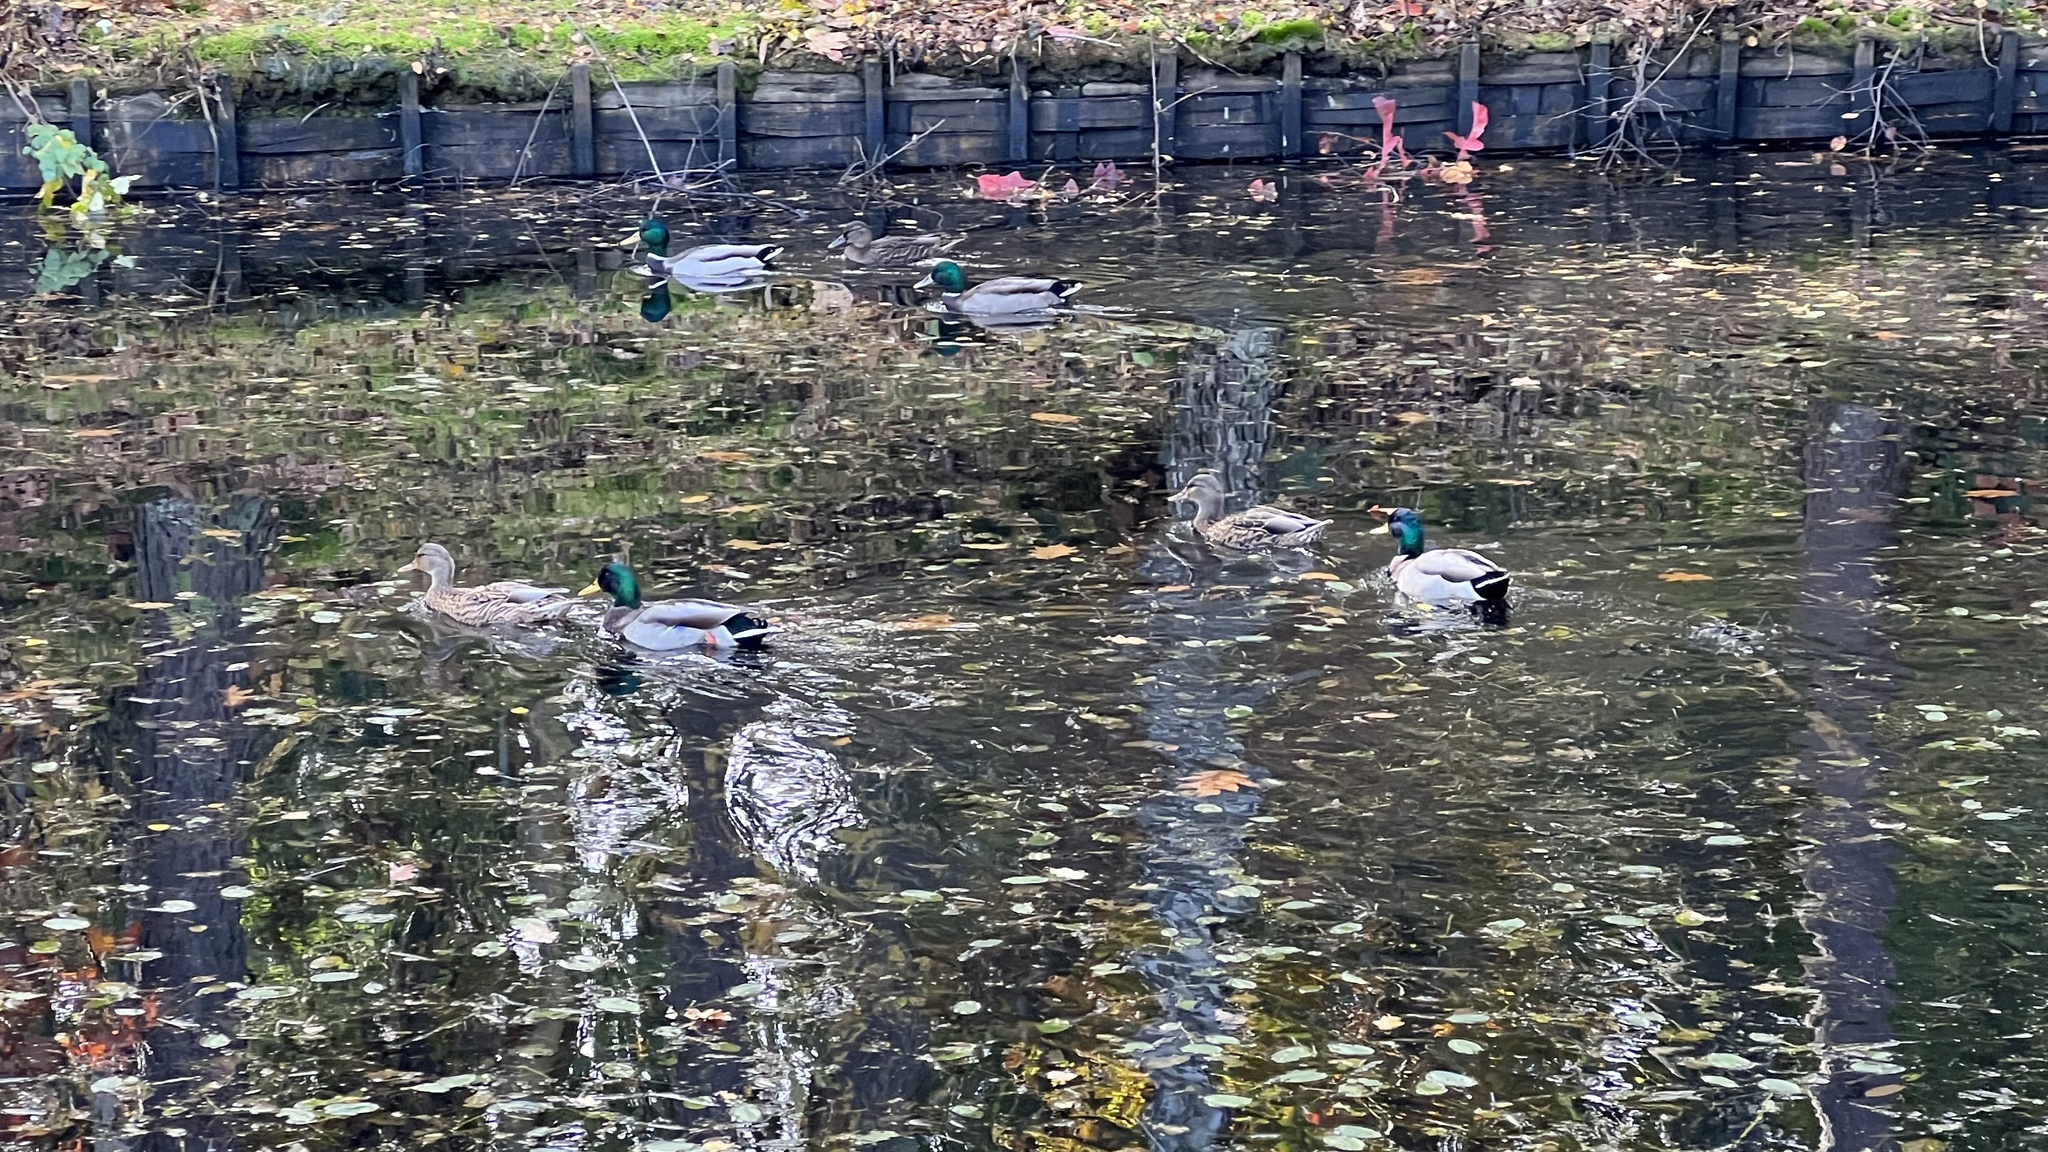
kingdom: Animalia
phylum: Chordata
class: Aves
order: Anseriformes
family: Anatidae
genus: Anas
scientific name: Anas platyrhynchos
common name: Mallard
